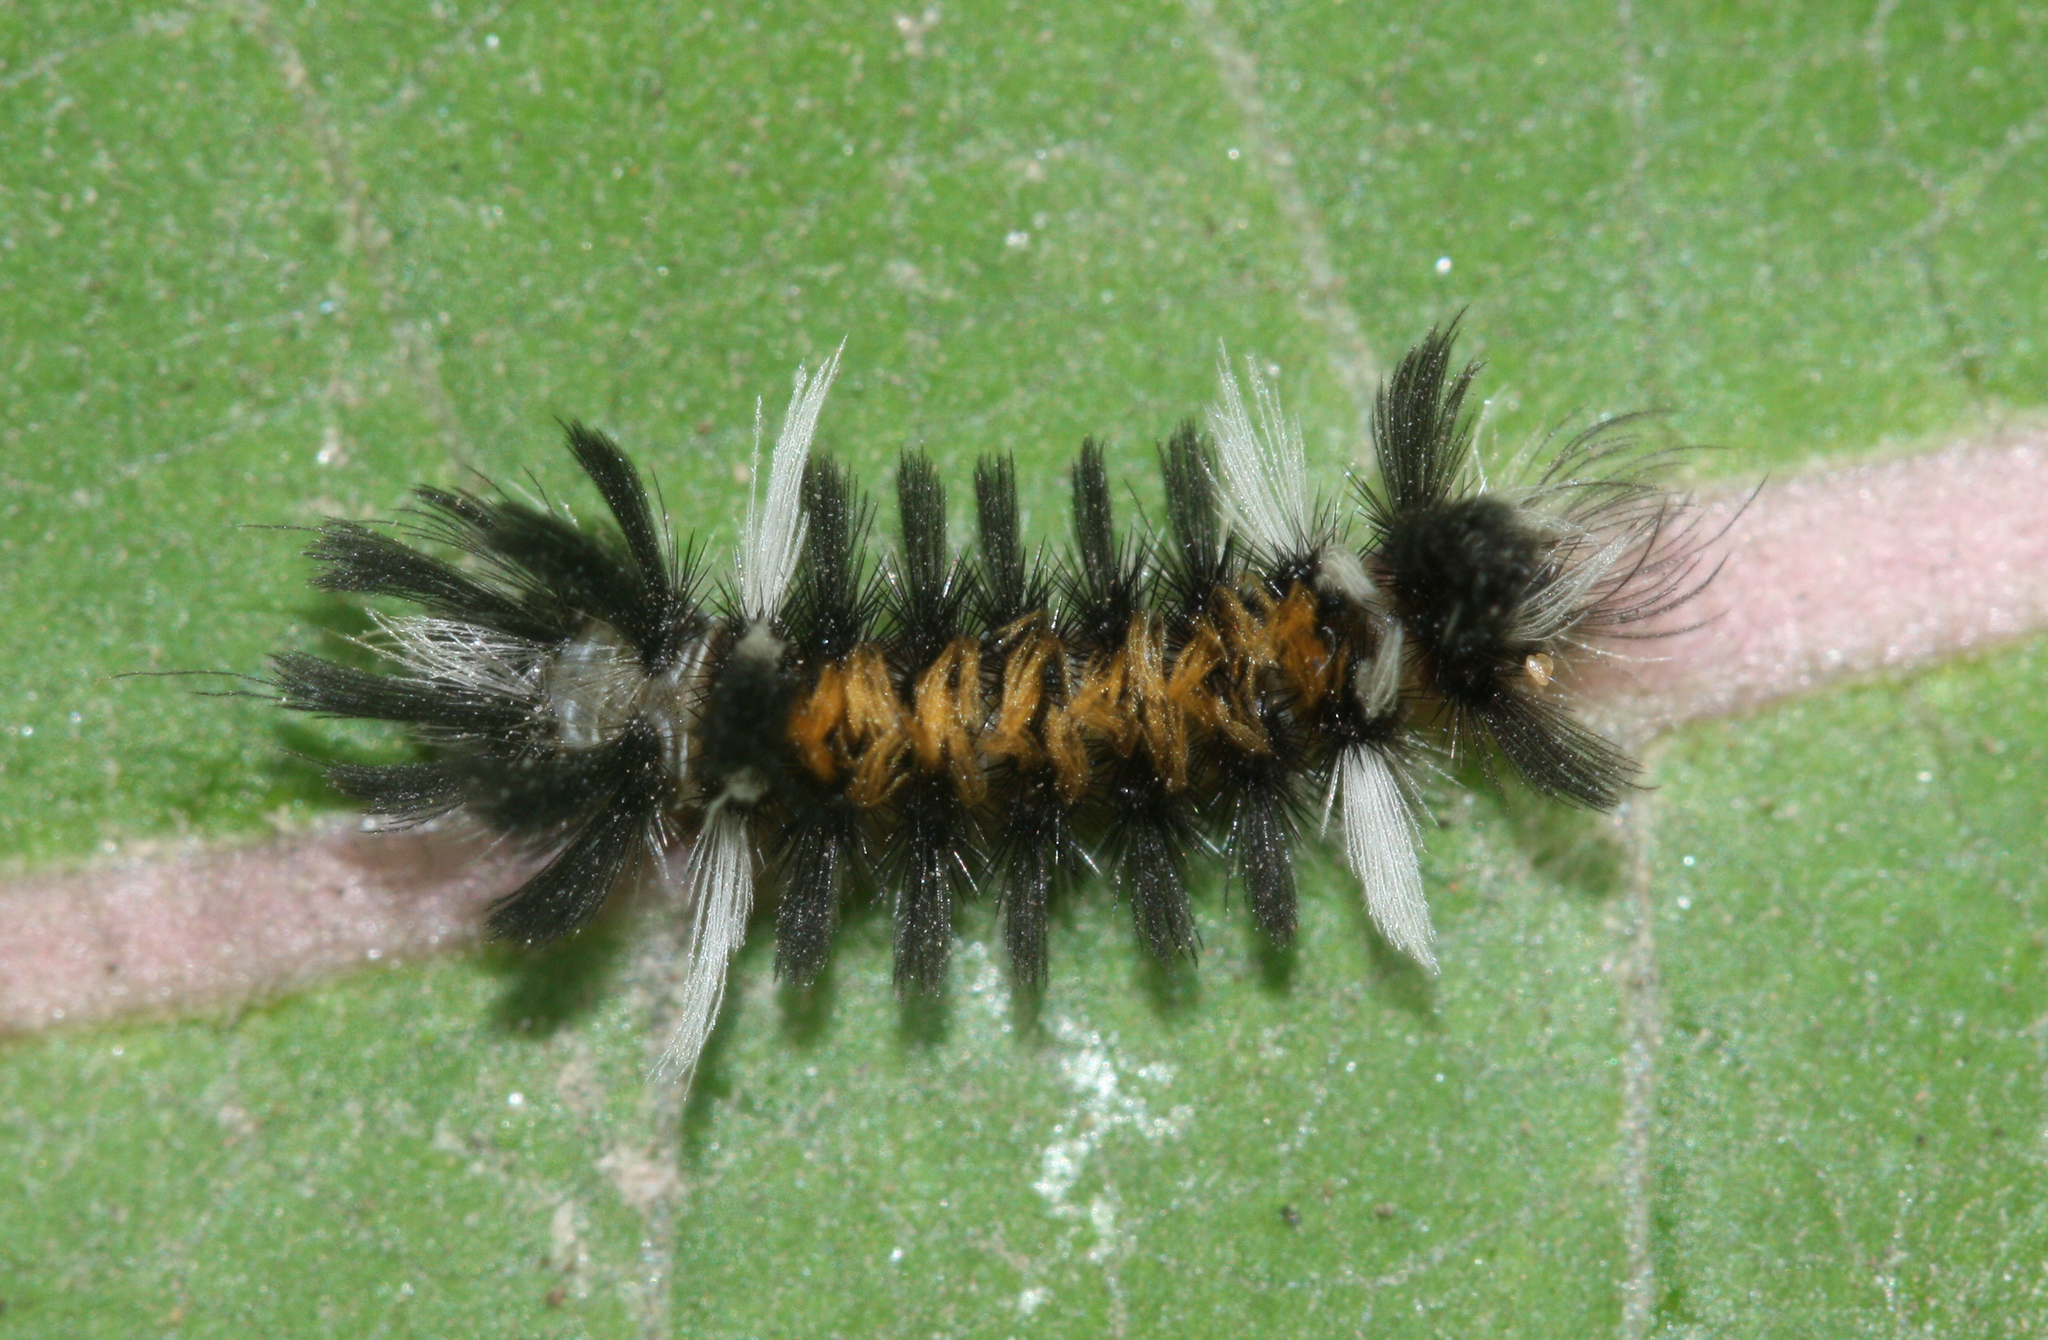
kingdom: Animalia
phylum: Arthropoda
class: Insecta
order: Lepidoptera
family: Erebidae
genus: Euchaetes
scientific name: Euchaetes egle
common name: Milkweed tussock moth
